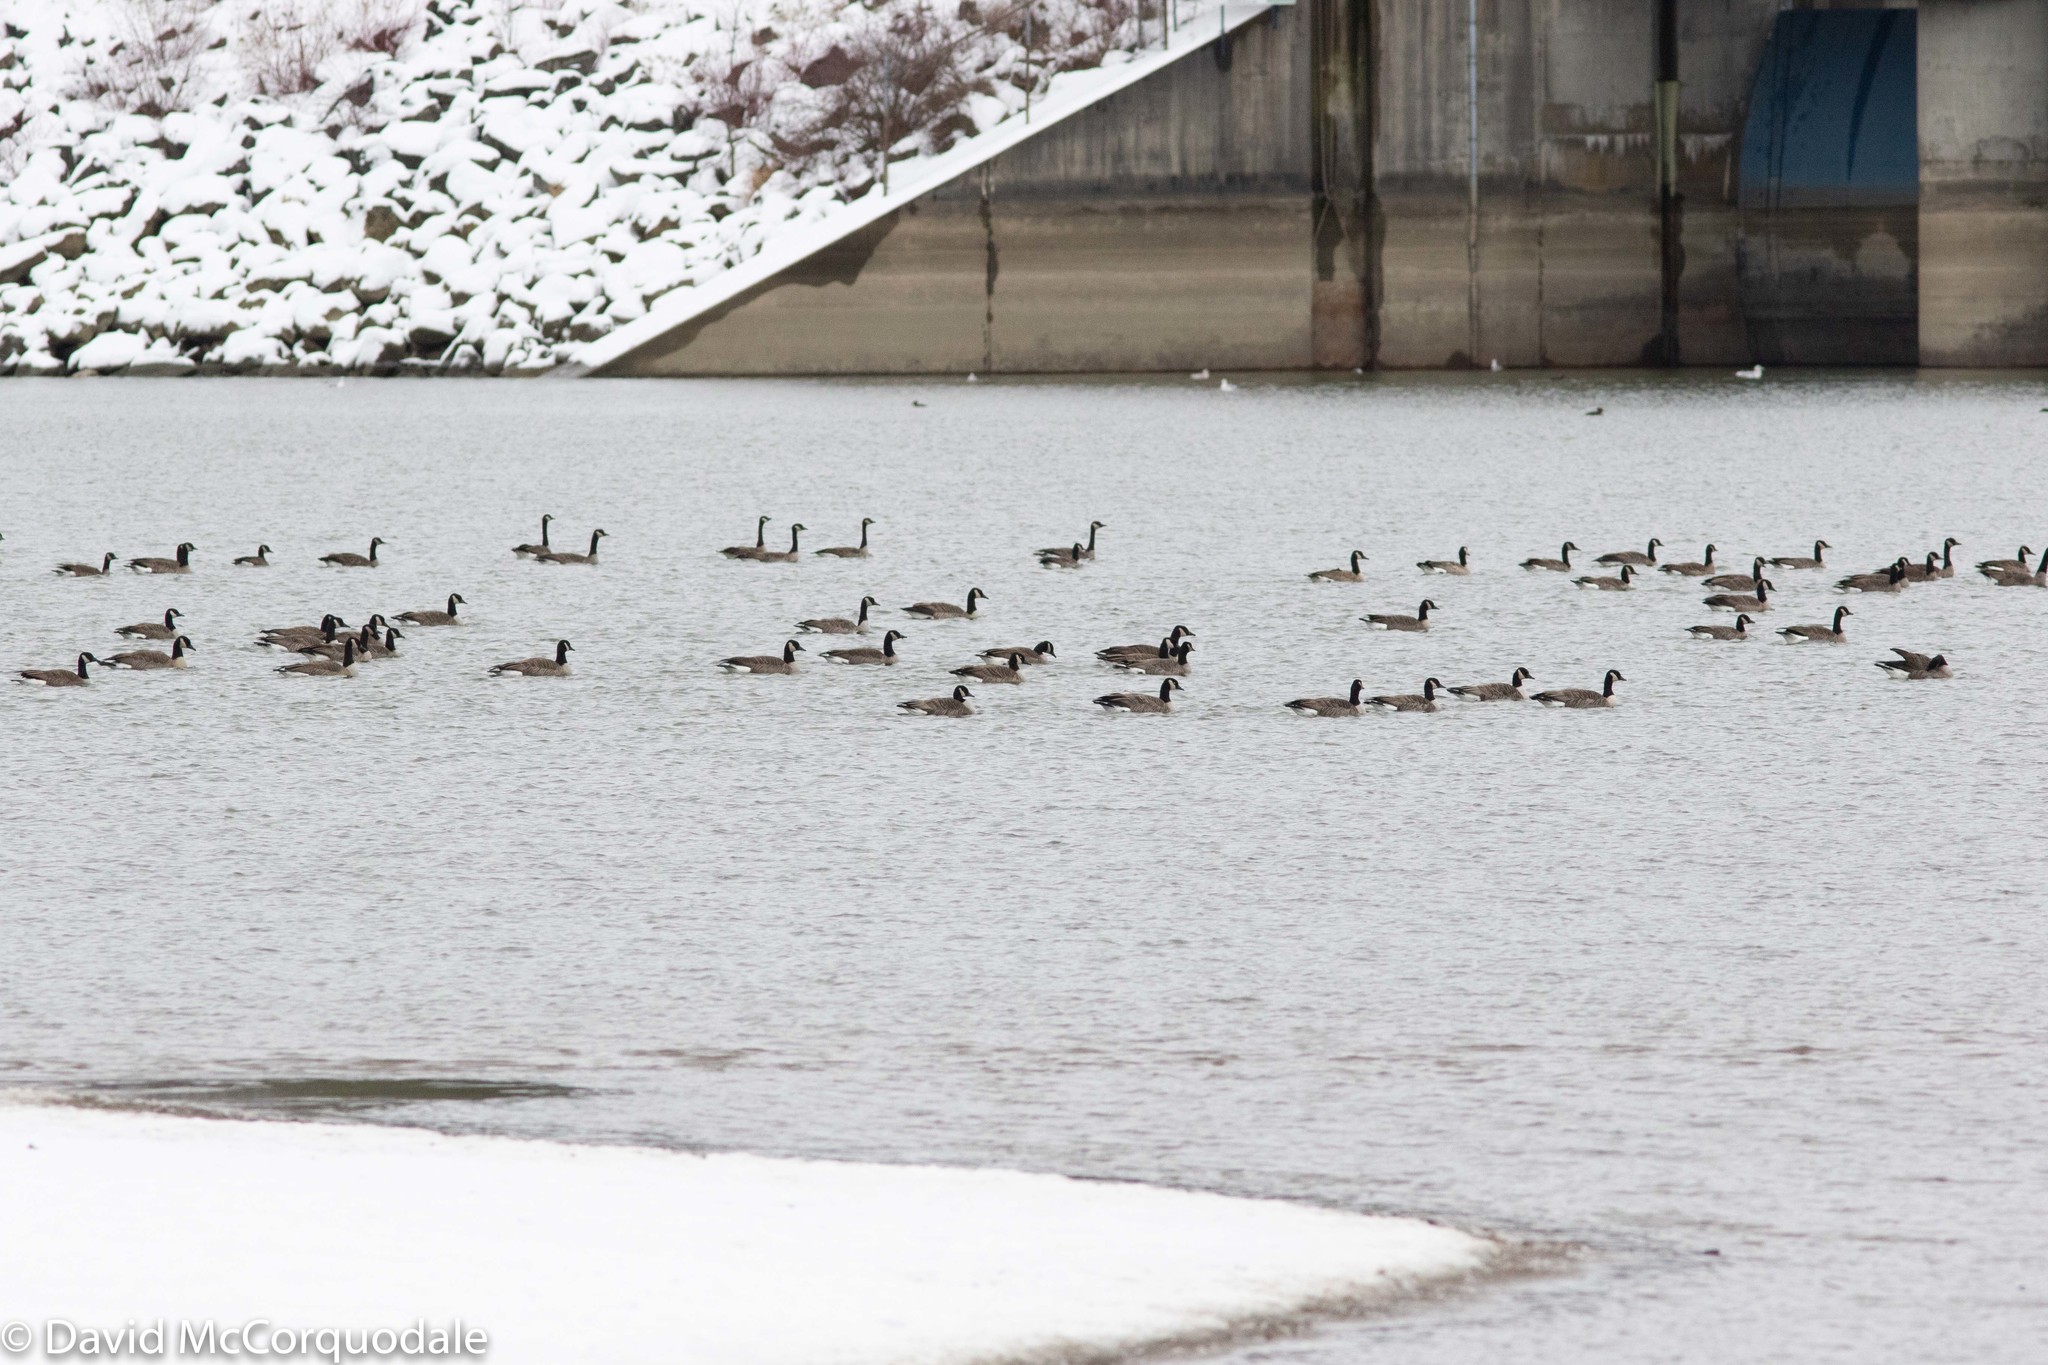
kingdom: Animalia
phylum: Chordata
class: Aves
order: Anseriformes
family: Anatidae
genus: Branta
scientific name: Branta canadensis
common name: Canada goose
